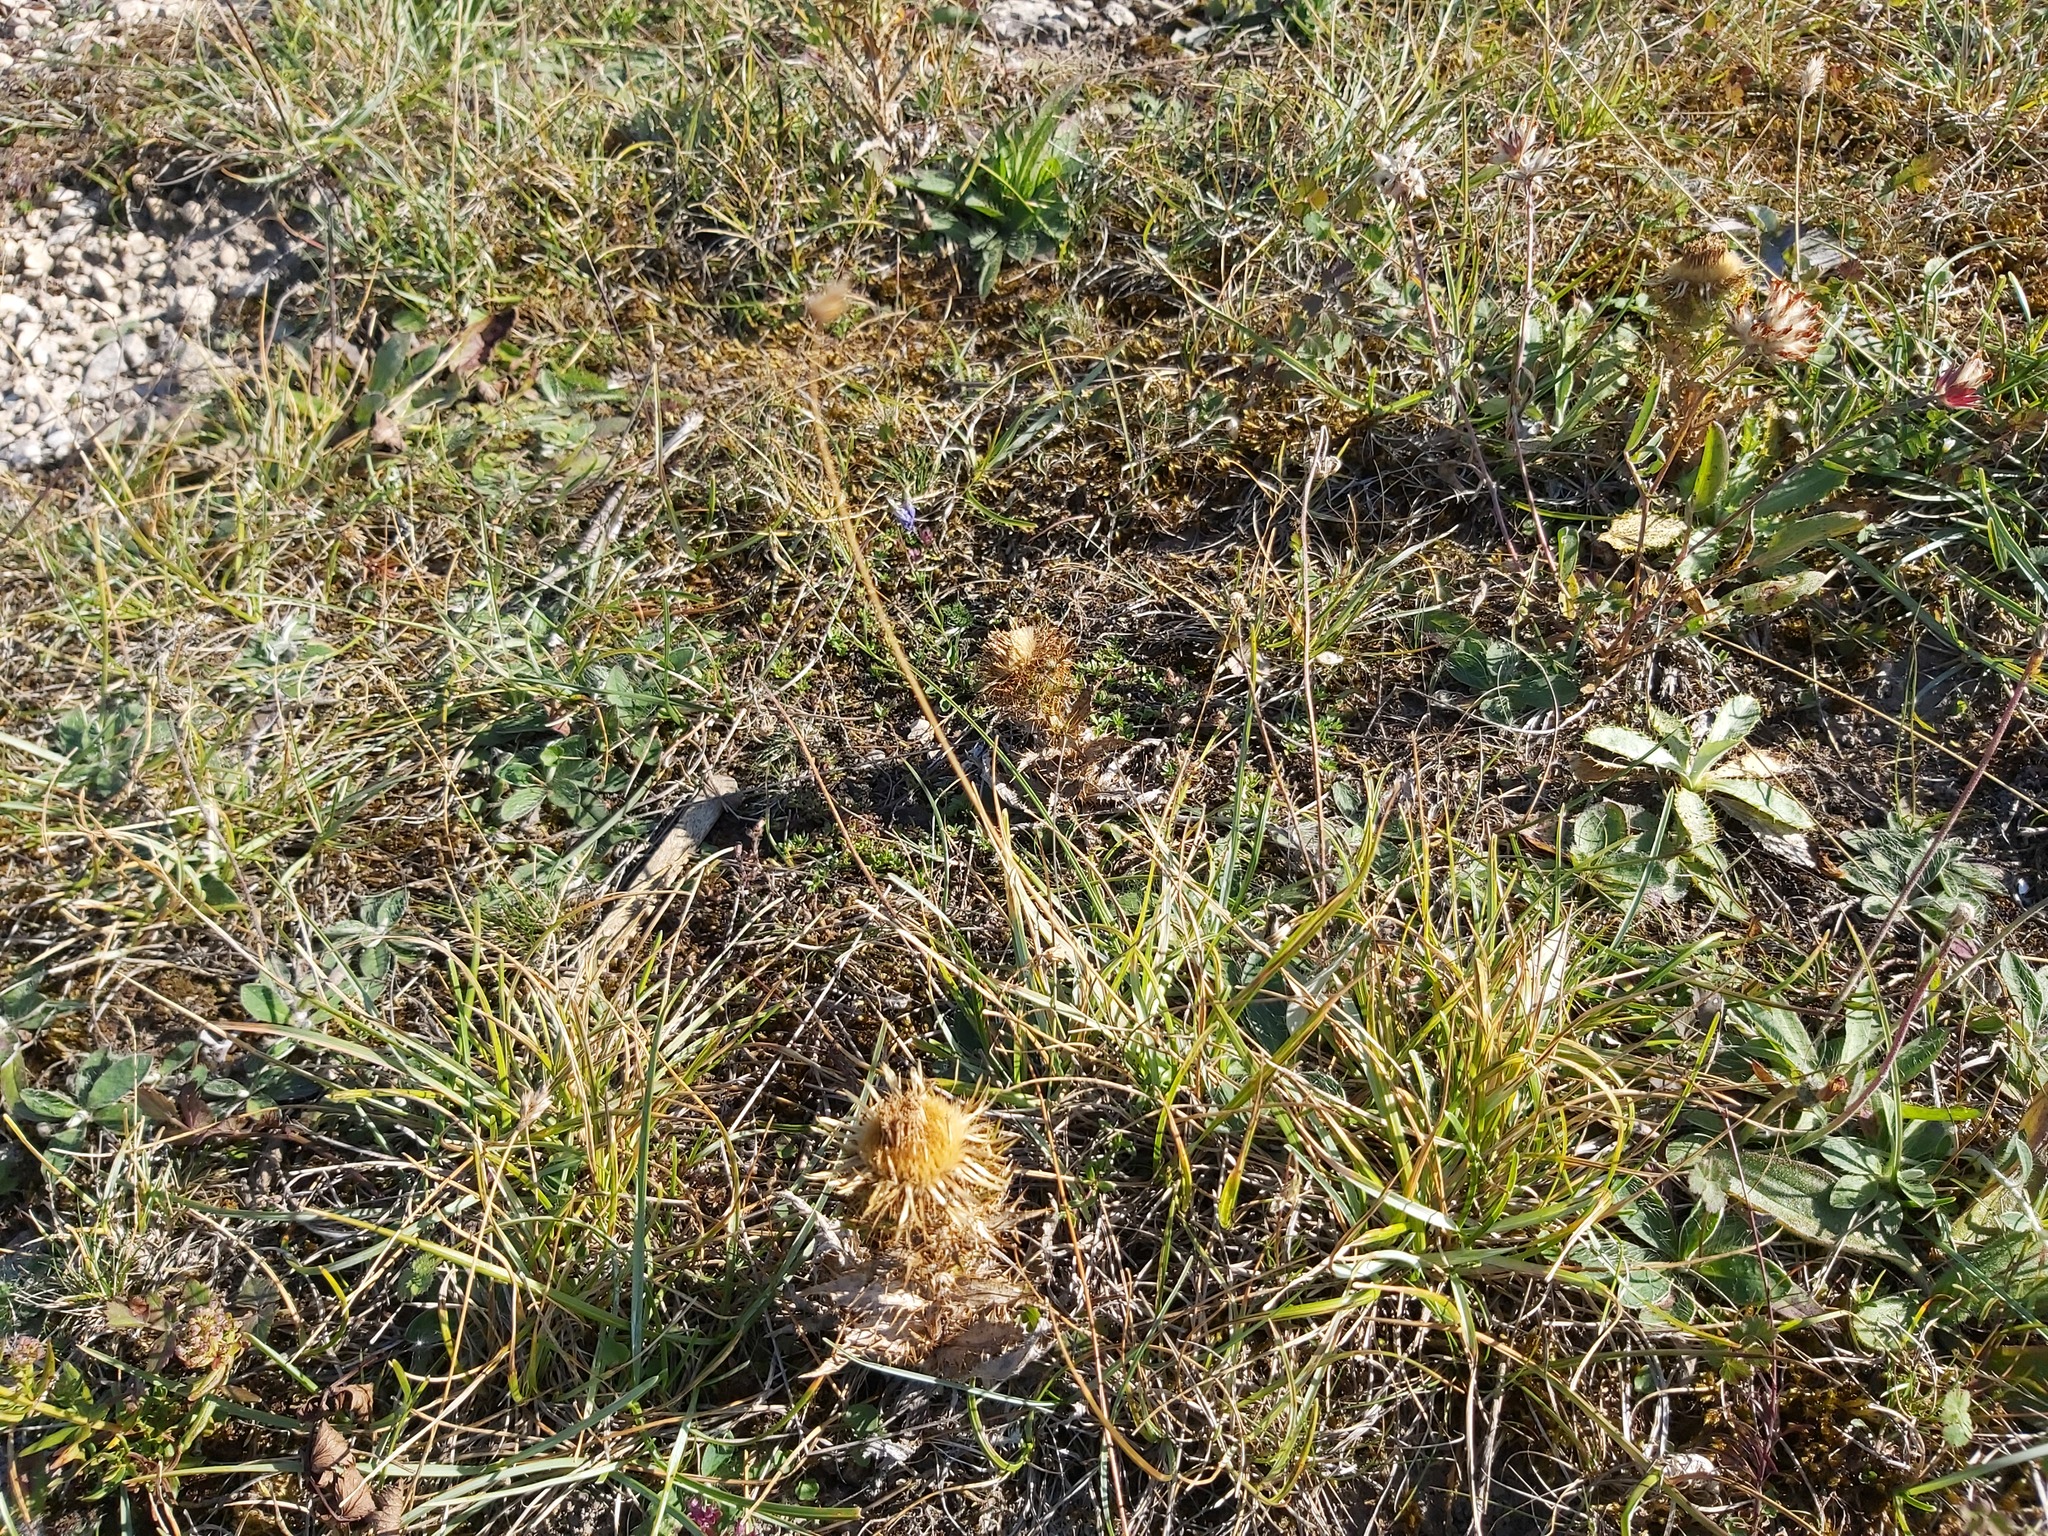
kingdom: Plantae
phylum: Tracheophyta
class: Magnoliopsida
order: Asterales
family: Asteraceae
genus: Carlina
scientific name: Carlina vulgaris
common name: Carline thistle
